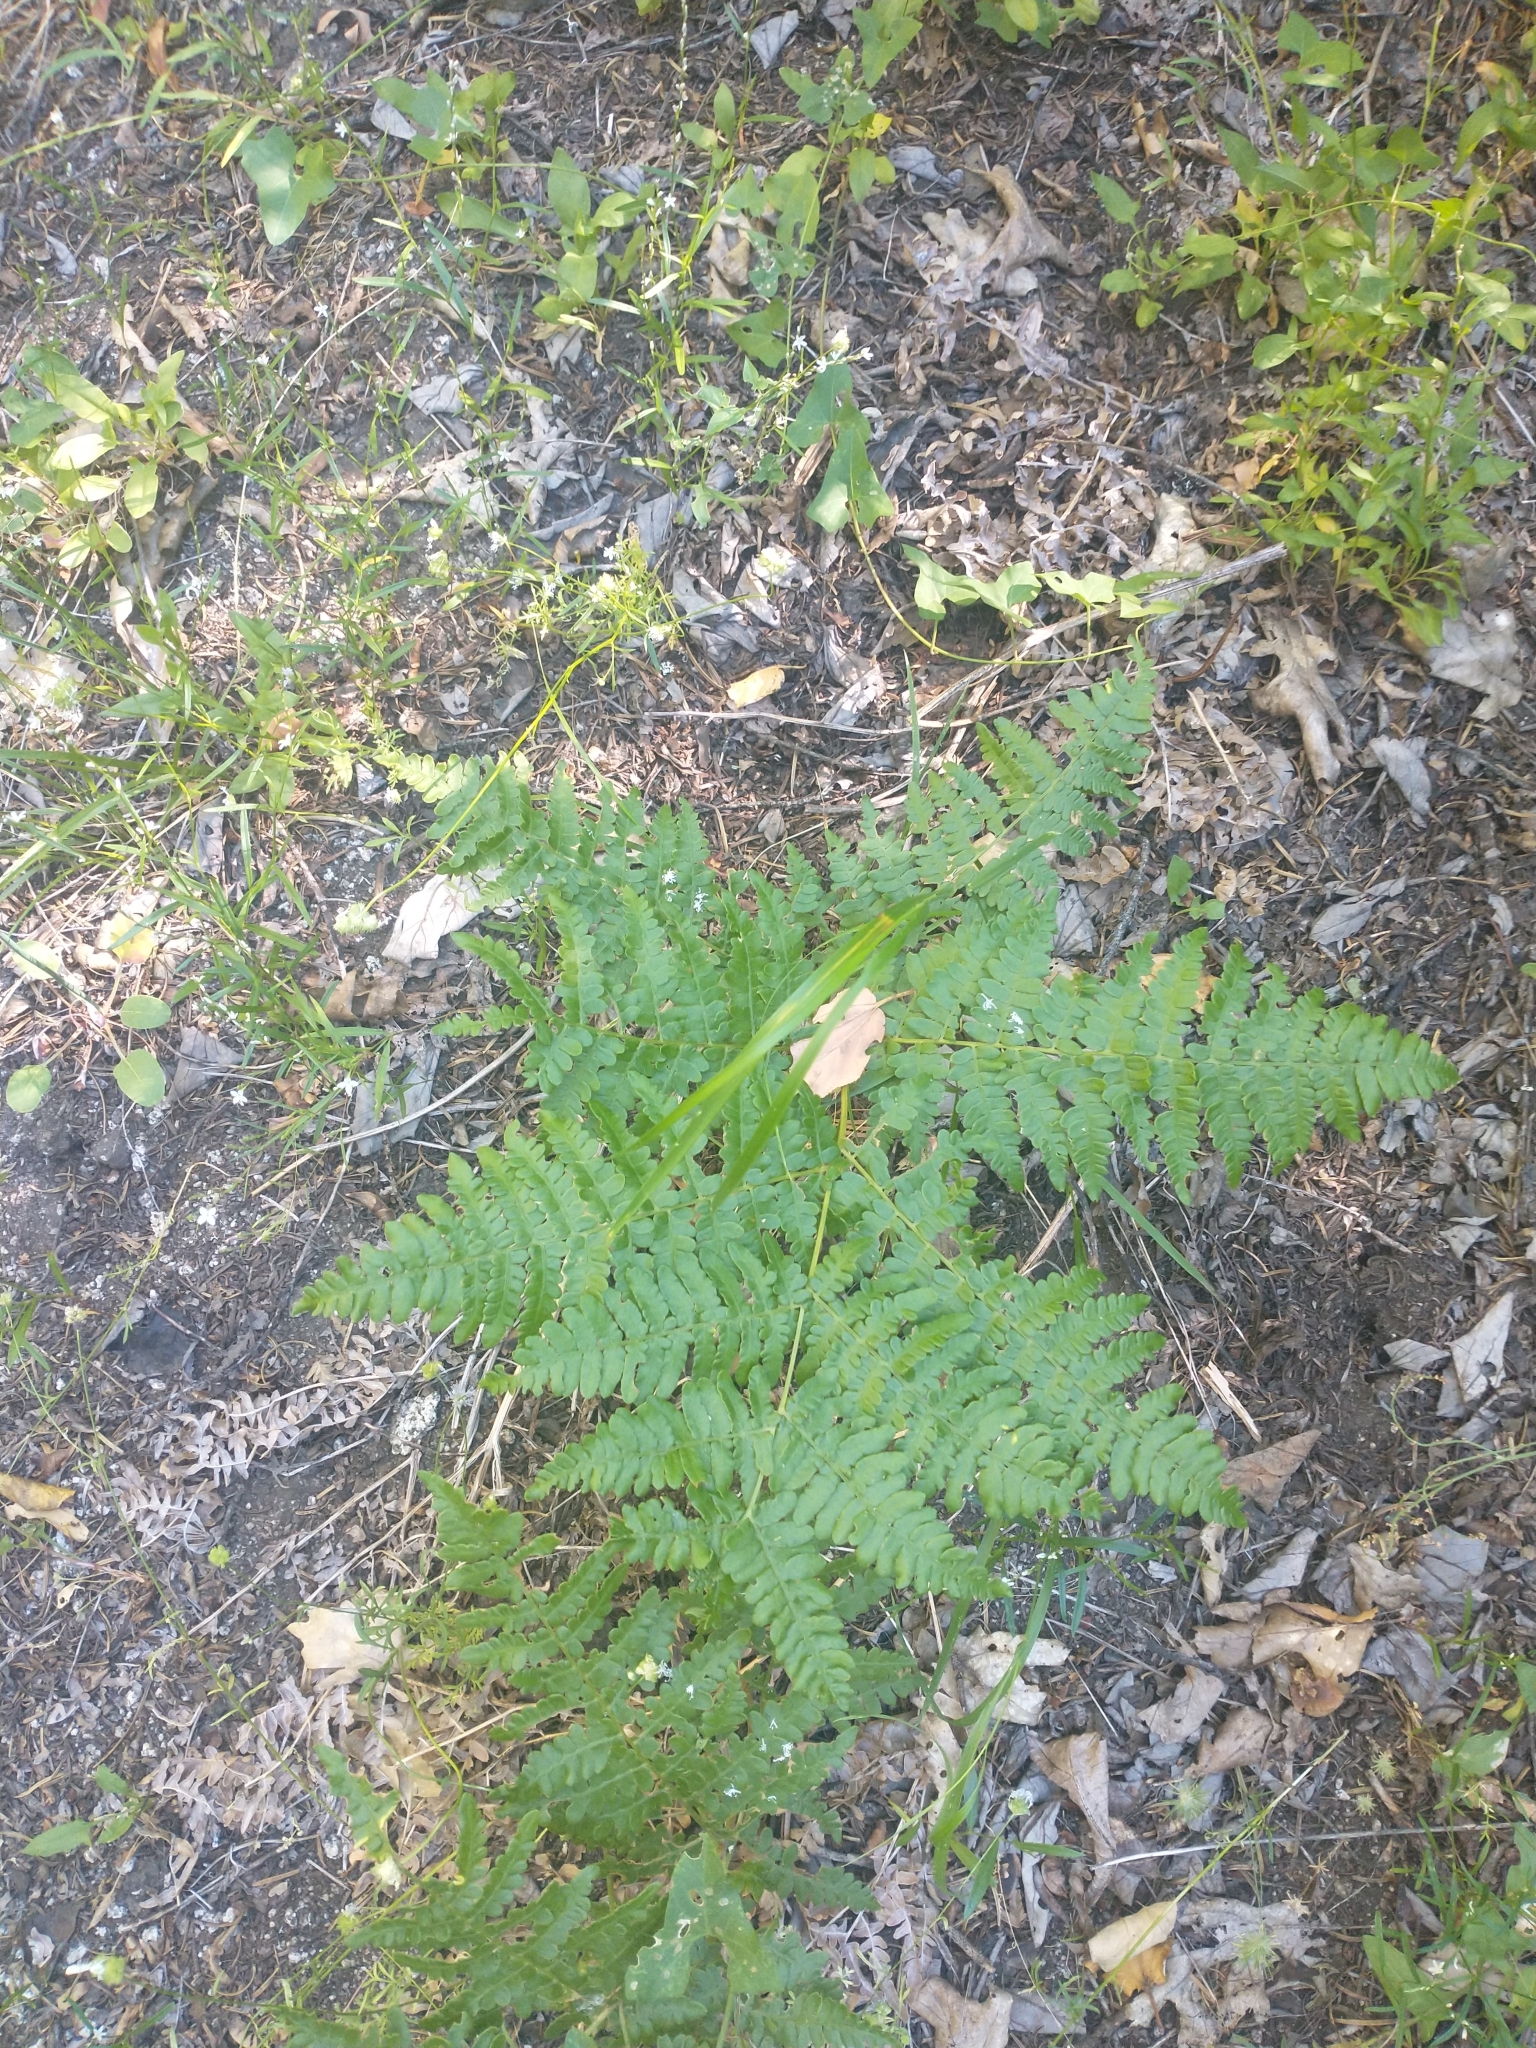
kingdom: Plantae
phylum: Tracheophyta
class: Polypodiopsida
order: Polypodiales
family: Dennstaedtiaceae
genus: Pteridium
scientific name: Pteridium aquilinum
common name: Bracken
